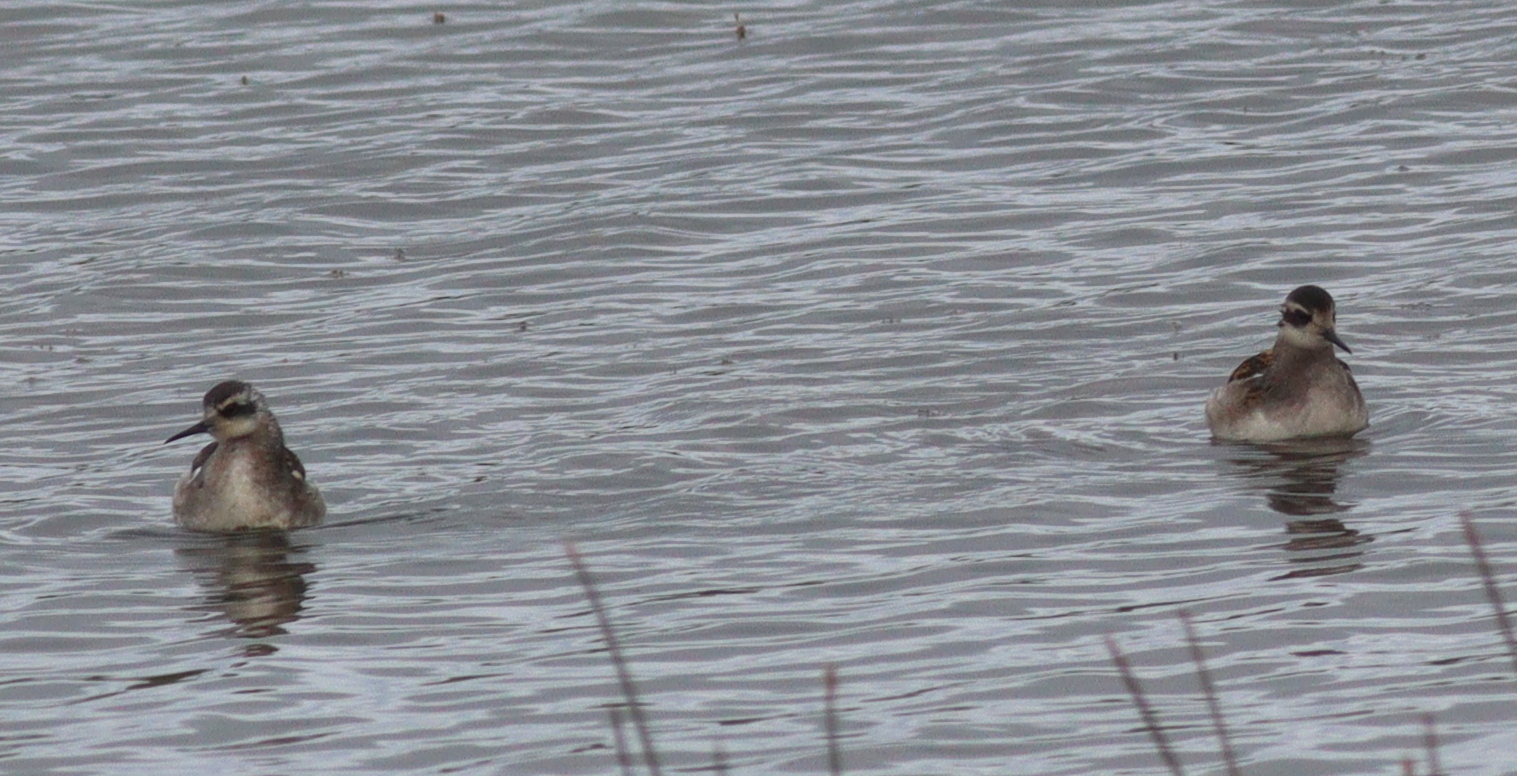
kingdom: Animalia
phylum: Chordata
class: Aves
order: Charadriiformes
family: Scolopacidae
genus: Phalaropus
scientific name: Phalaropus lobatus
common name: Red-necked phalarope
